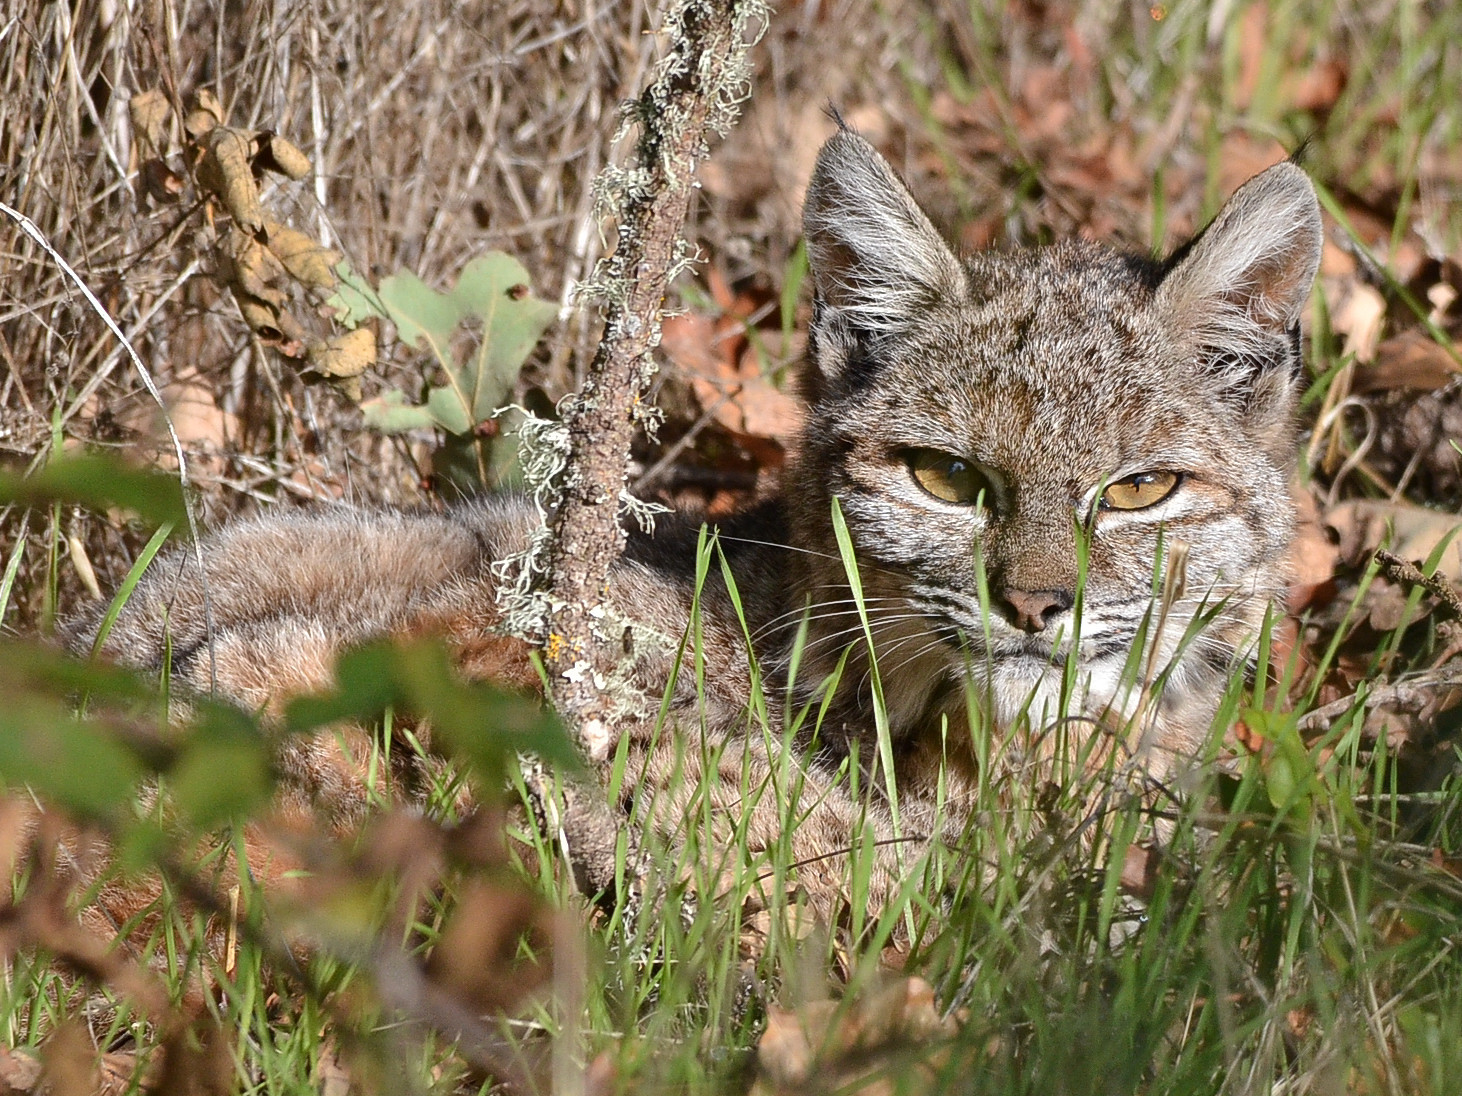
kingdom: Animalia
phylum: Chordata
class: Mammalia
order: Carnivora
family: Felidae
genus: Lynx
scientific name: Lynx rufus
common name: Bobcat
